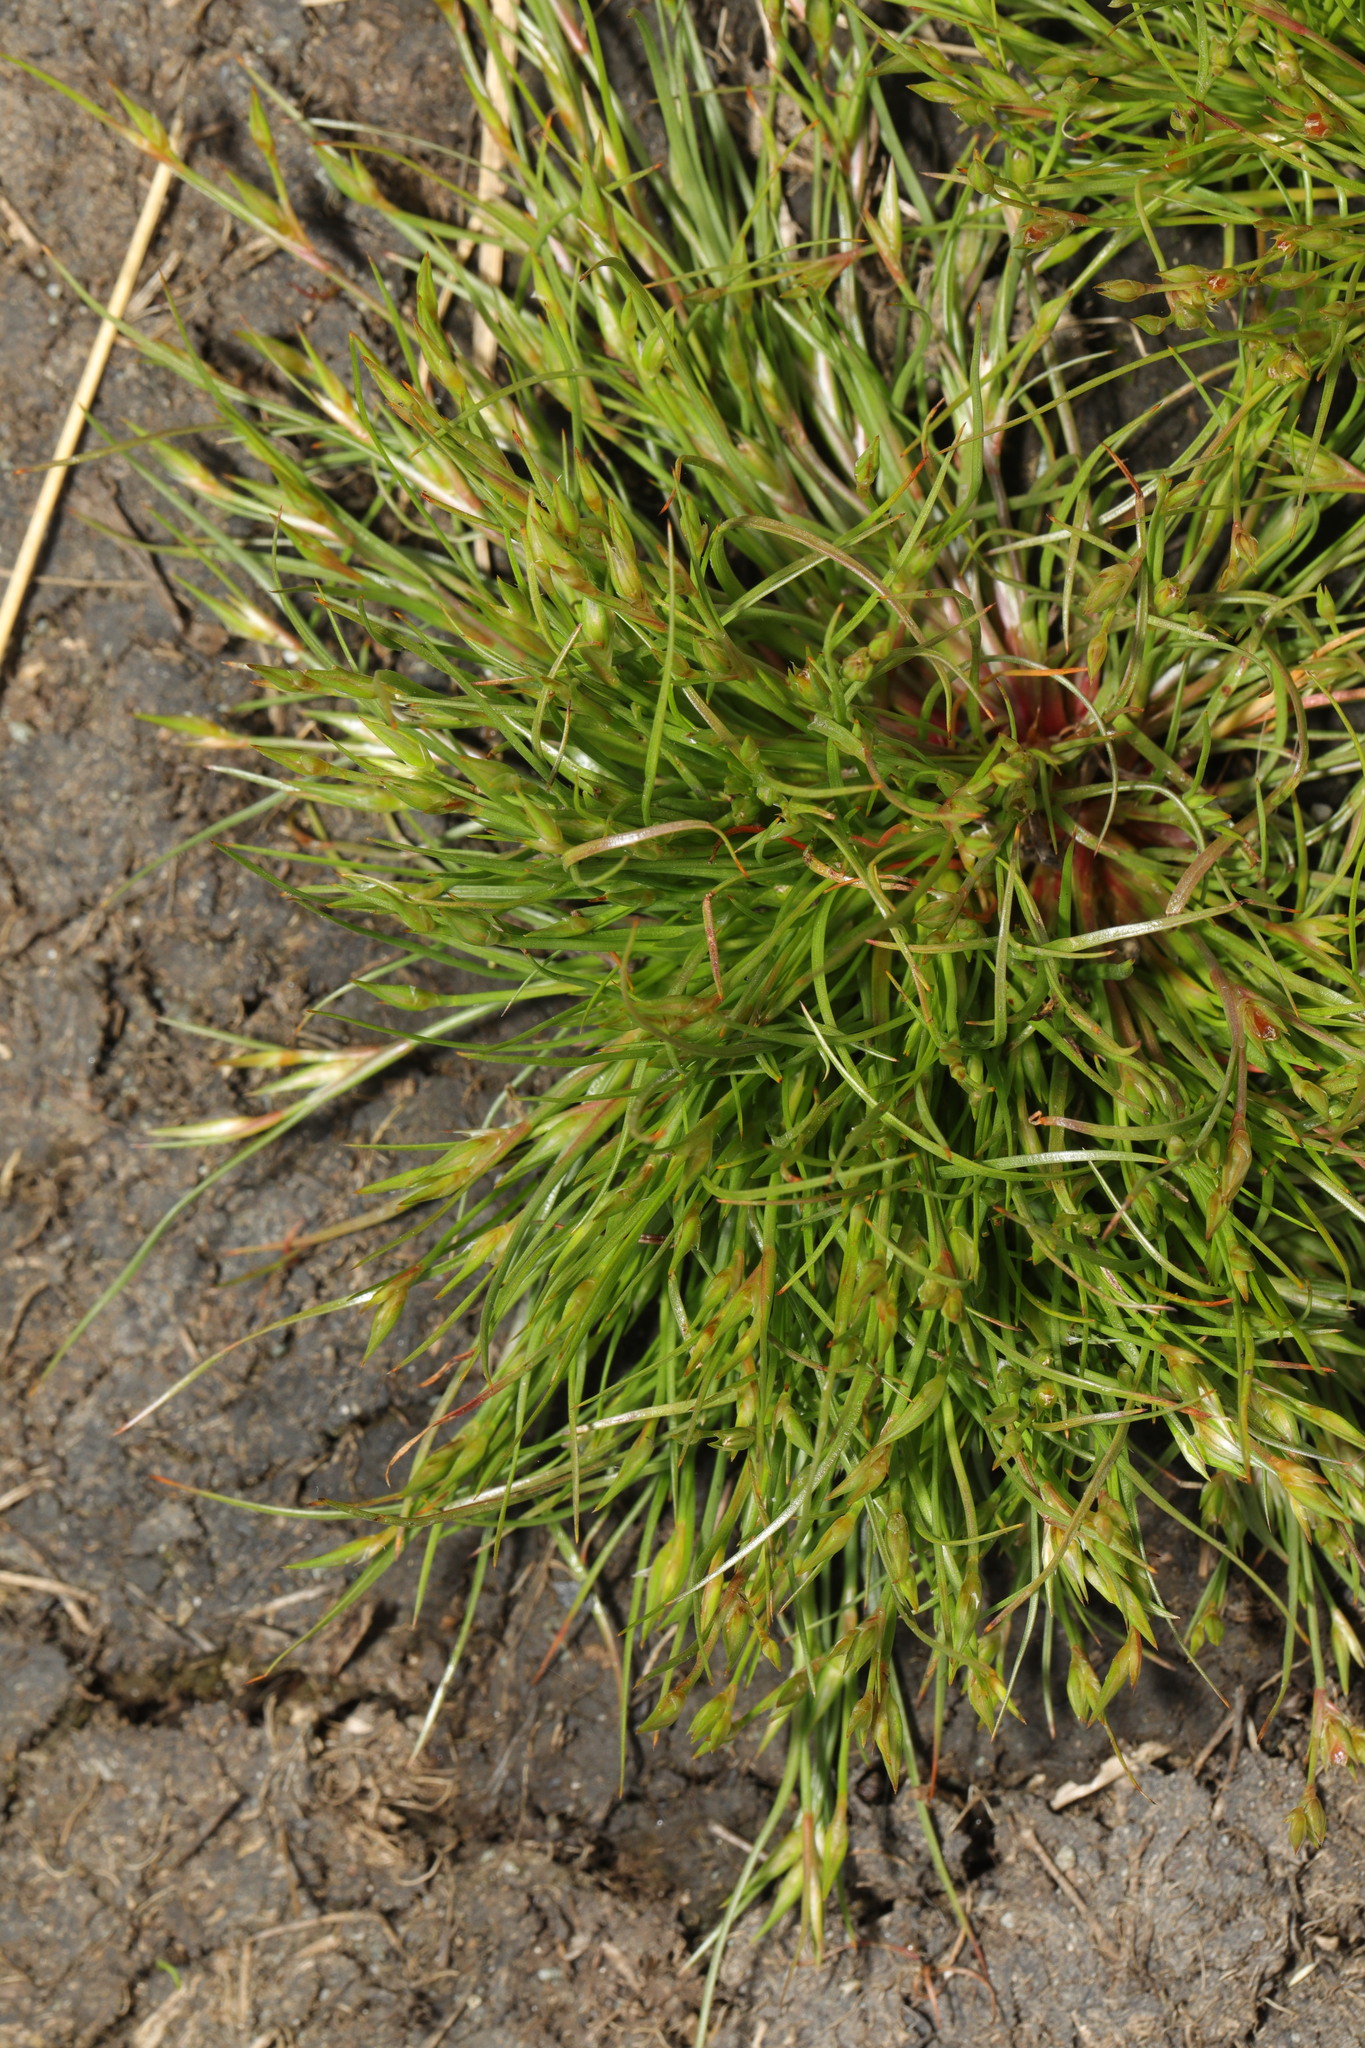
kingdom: Plantae
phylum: Tracheophyta
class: Liliopsida
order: Poales
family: Juncaceae
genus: Juncus
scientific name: Juncus bufonius
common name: Toad rush
